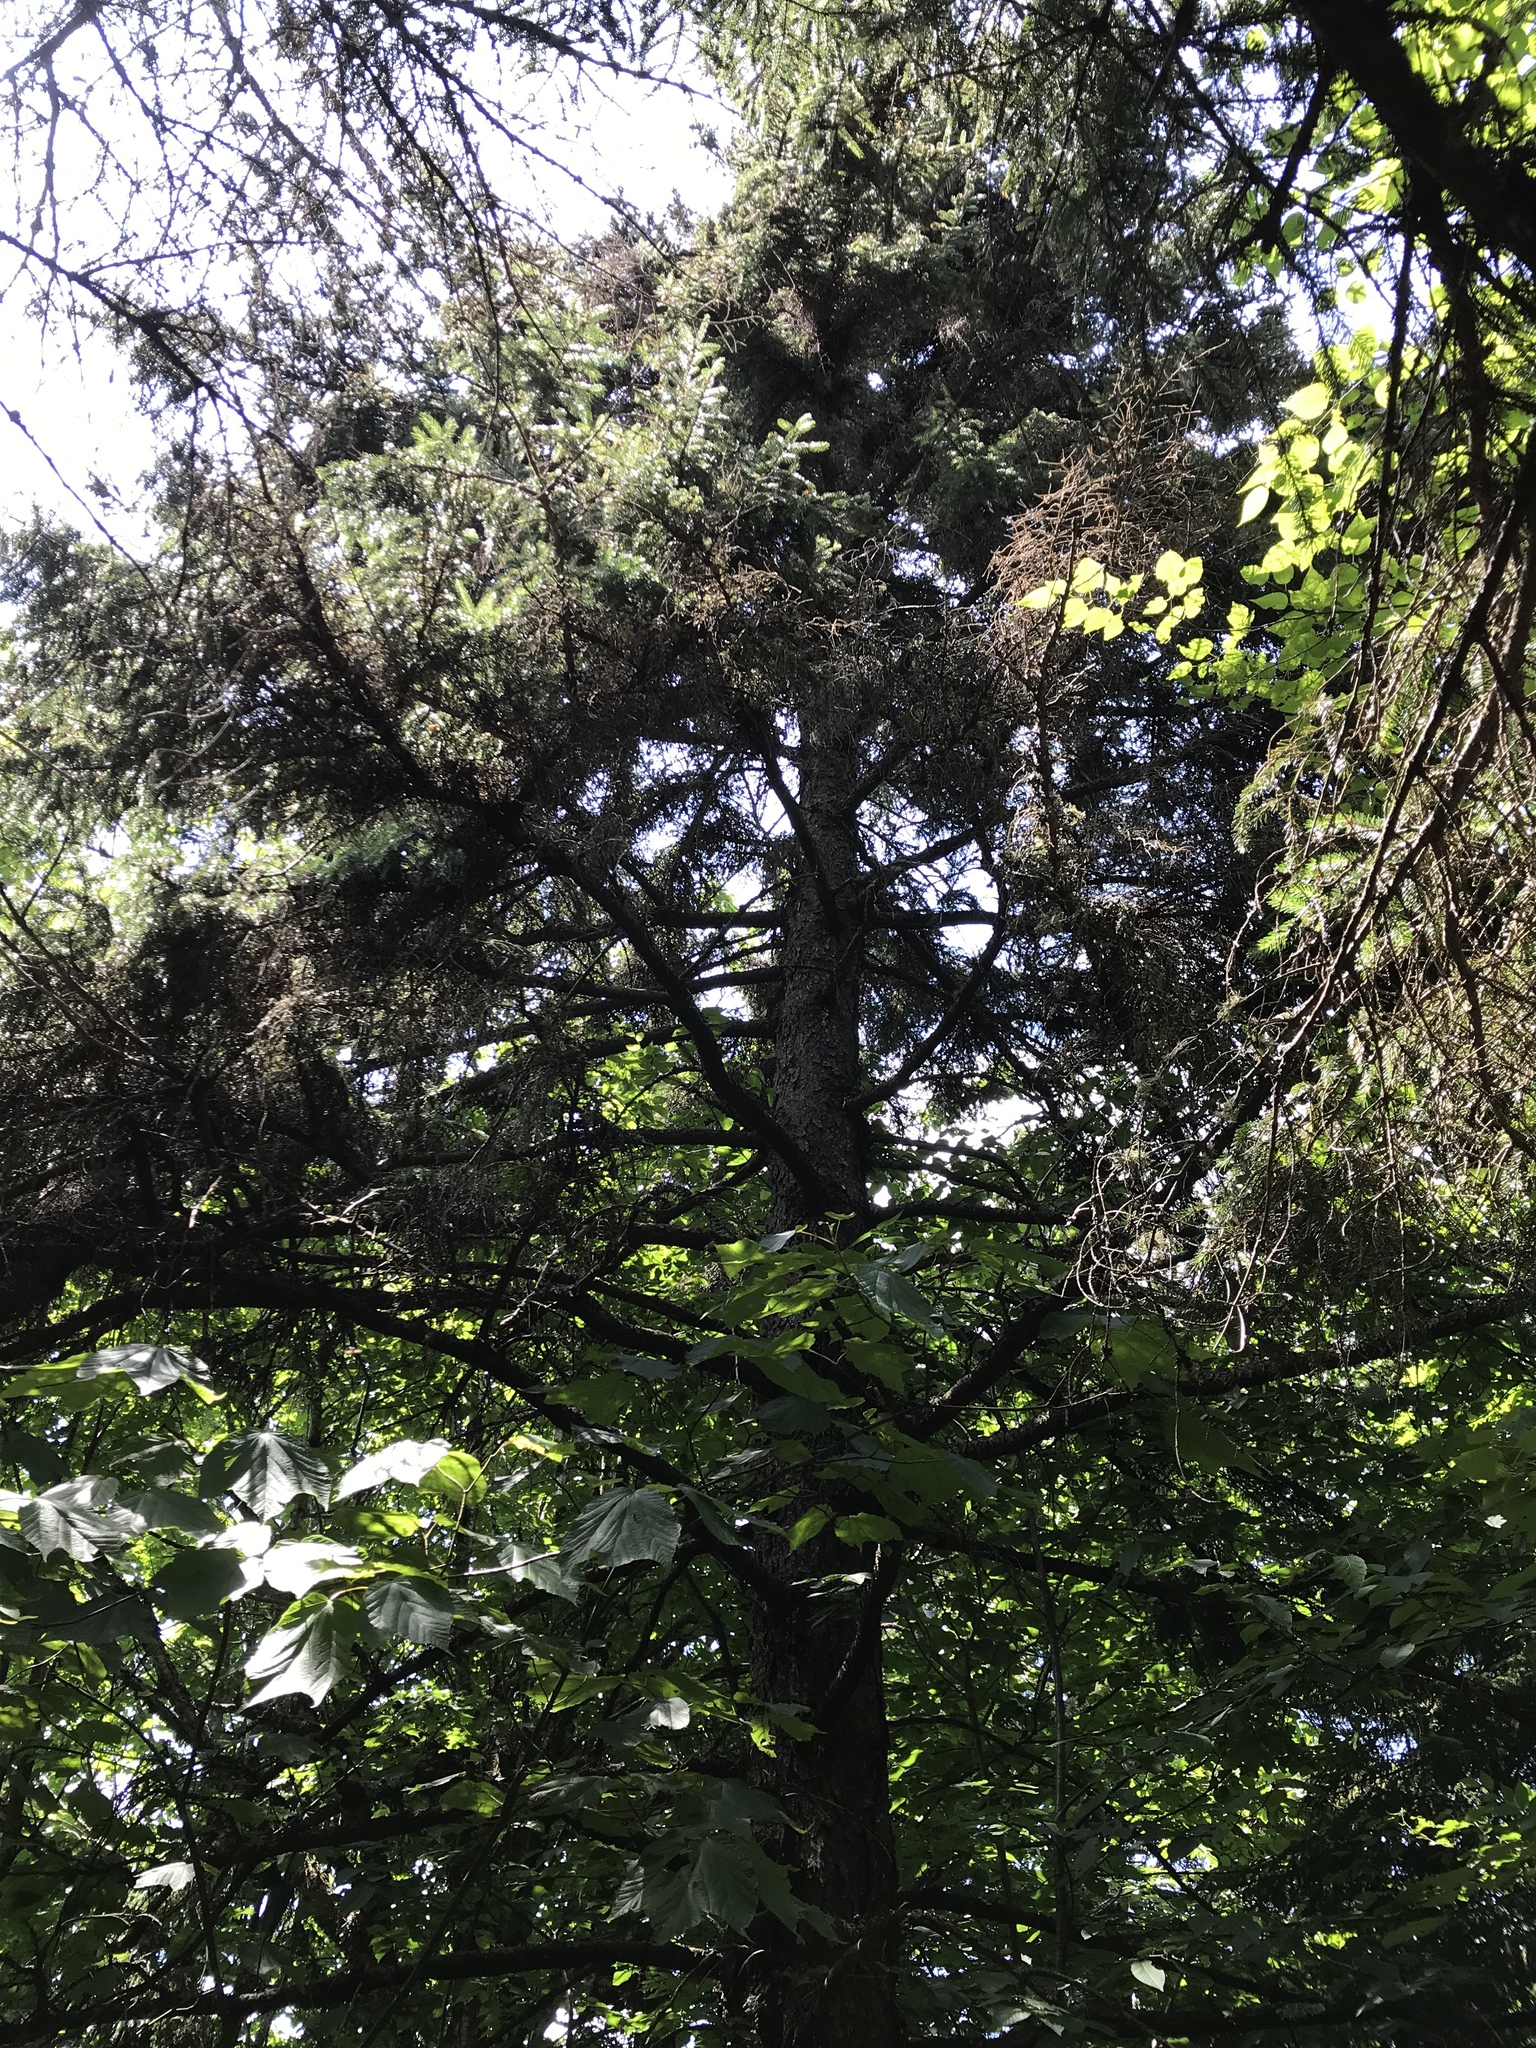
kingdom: Plantae
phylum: Tracheophyta
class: Pinopsida
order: Pinales
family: Pinaceae
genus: Picea
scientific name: Picea rubens
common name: Red spruce
